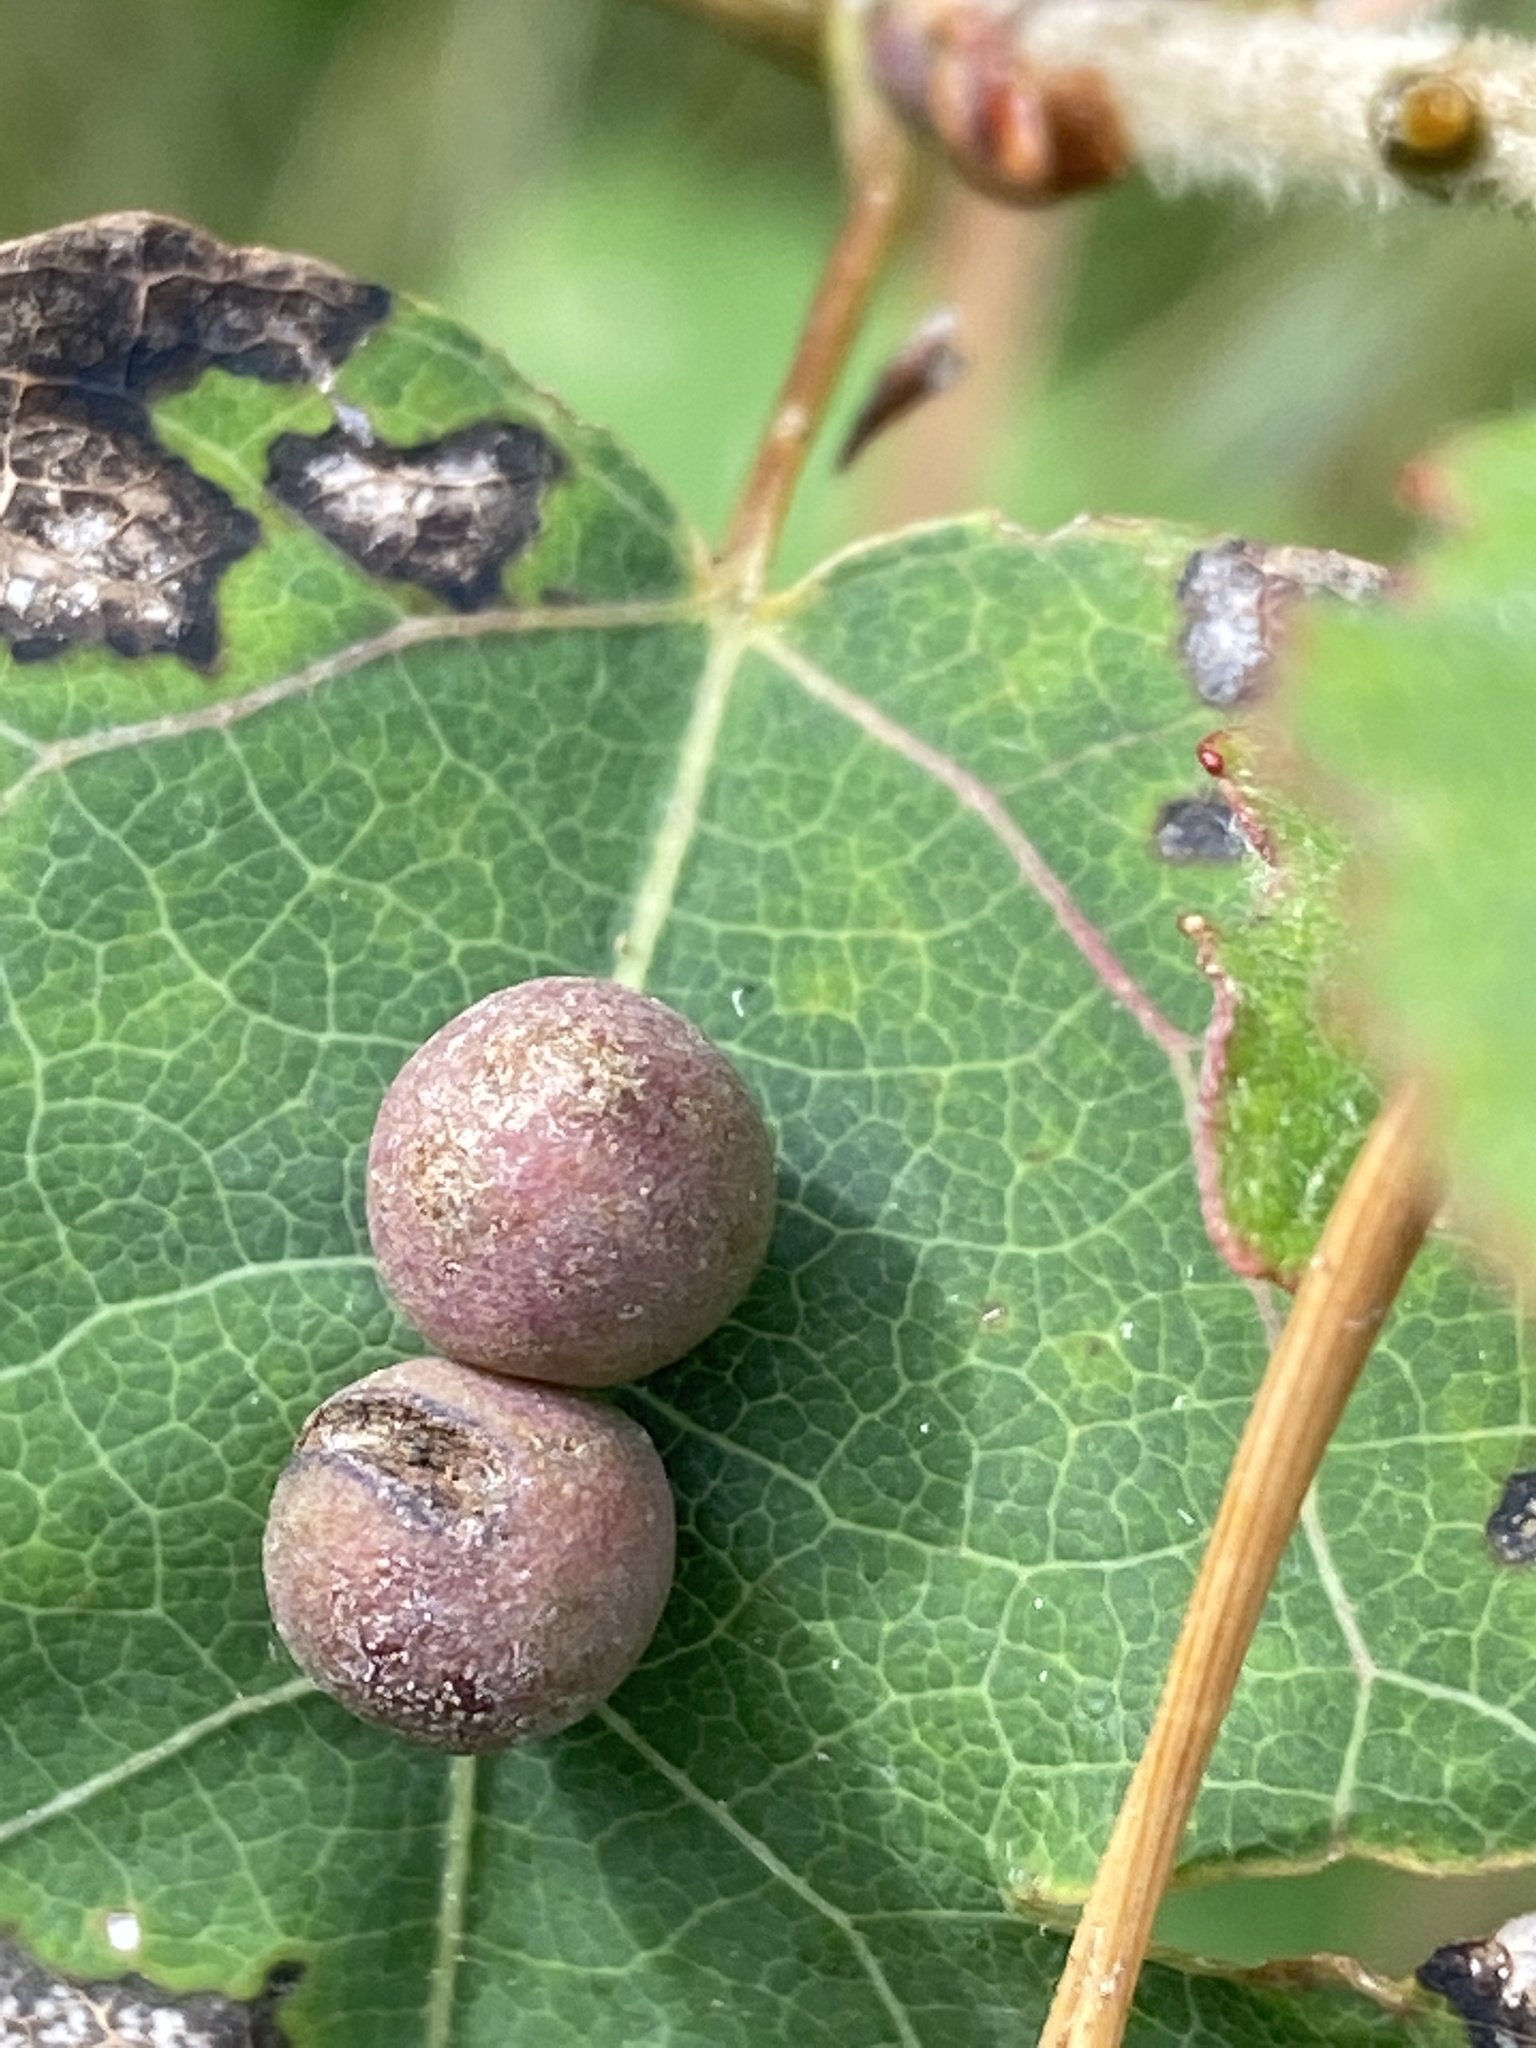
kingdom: Animalia
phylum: Arthropoda
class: Insecta
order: Diptera
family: Cecidomyiidae
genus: Harmandiola
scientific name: Harmandiola tremulae
